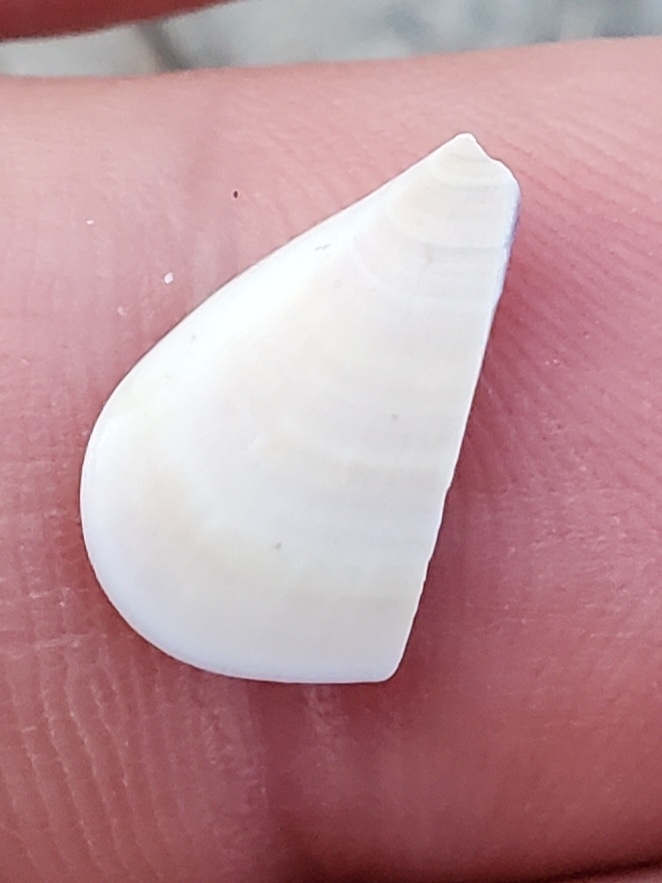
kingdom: Animalia
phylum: Mollusca
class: Bivalvia
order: Cardiida
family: Donacidae
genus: Donax
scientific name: Donax variabilis
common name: Butterfly shell
